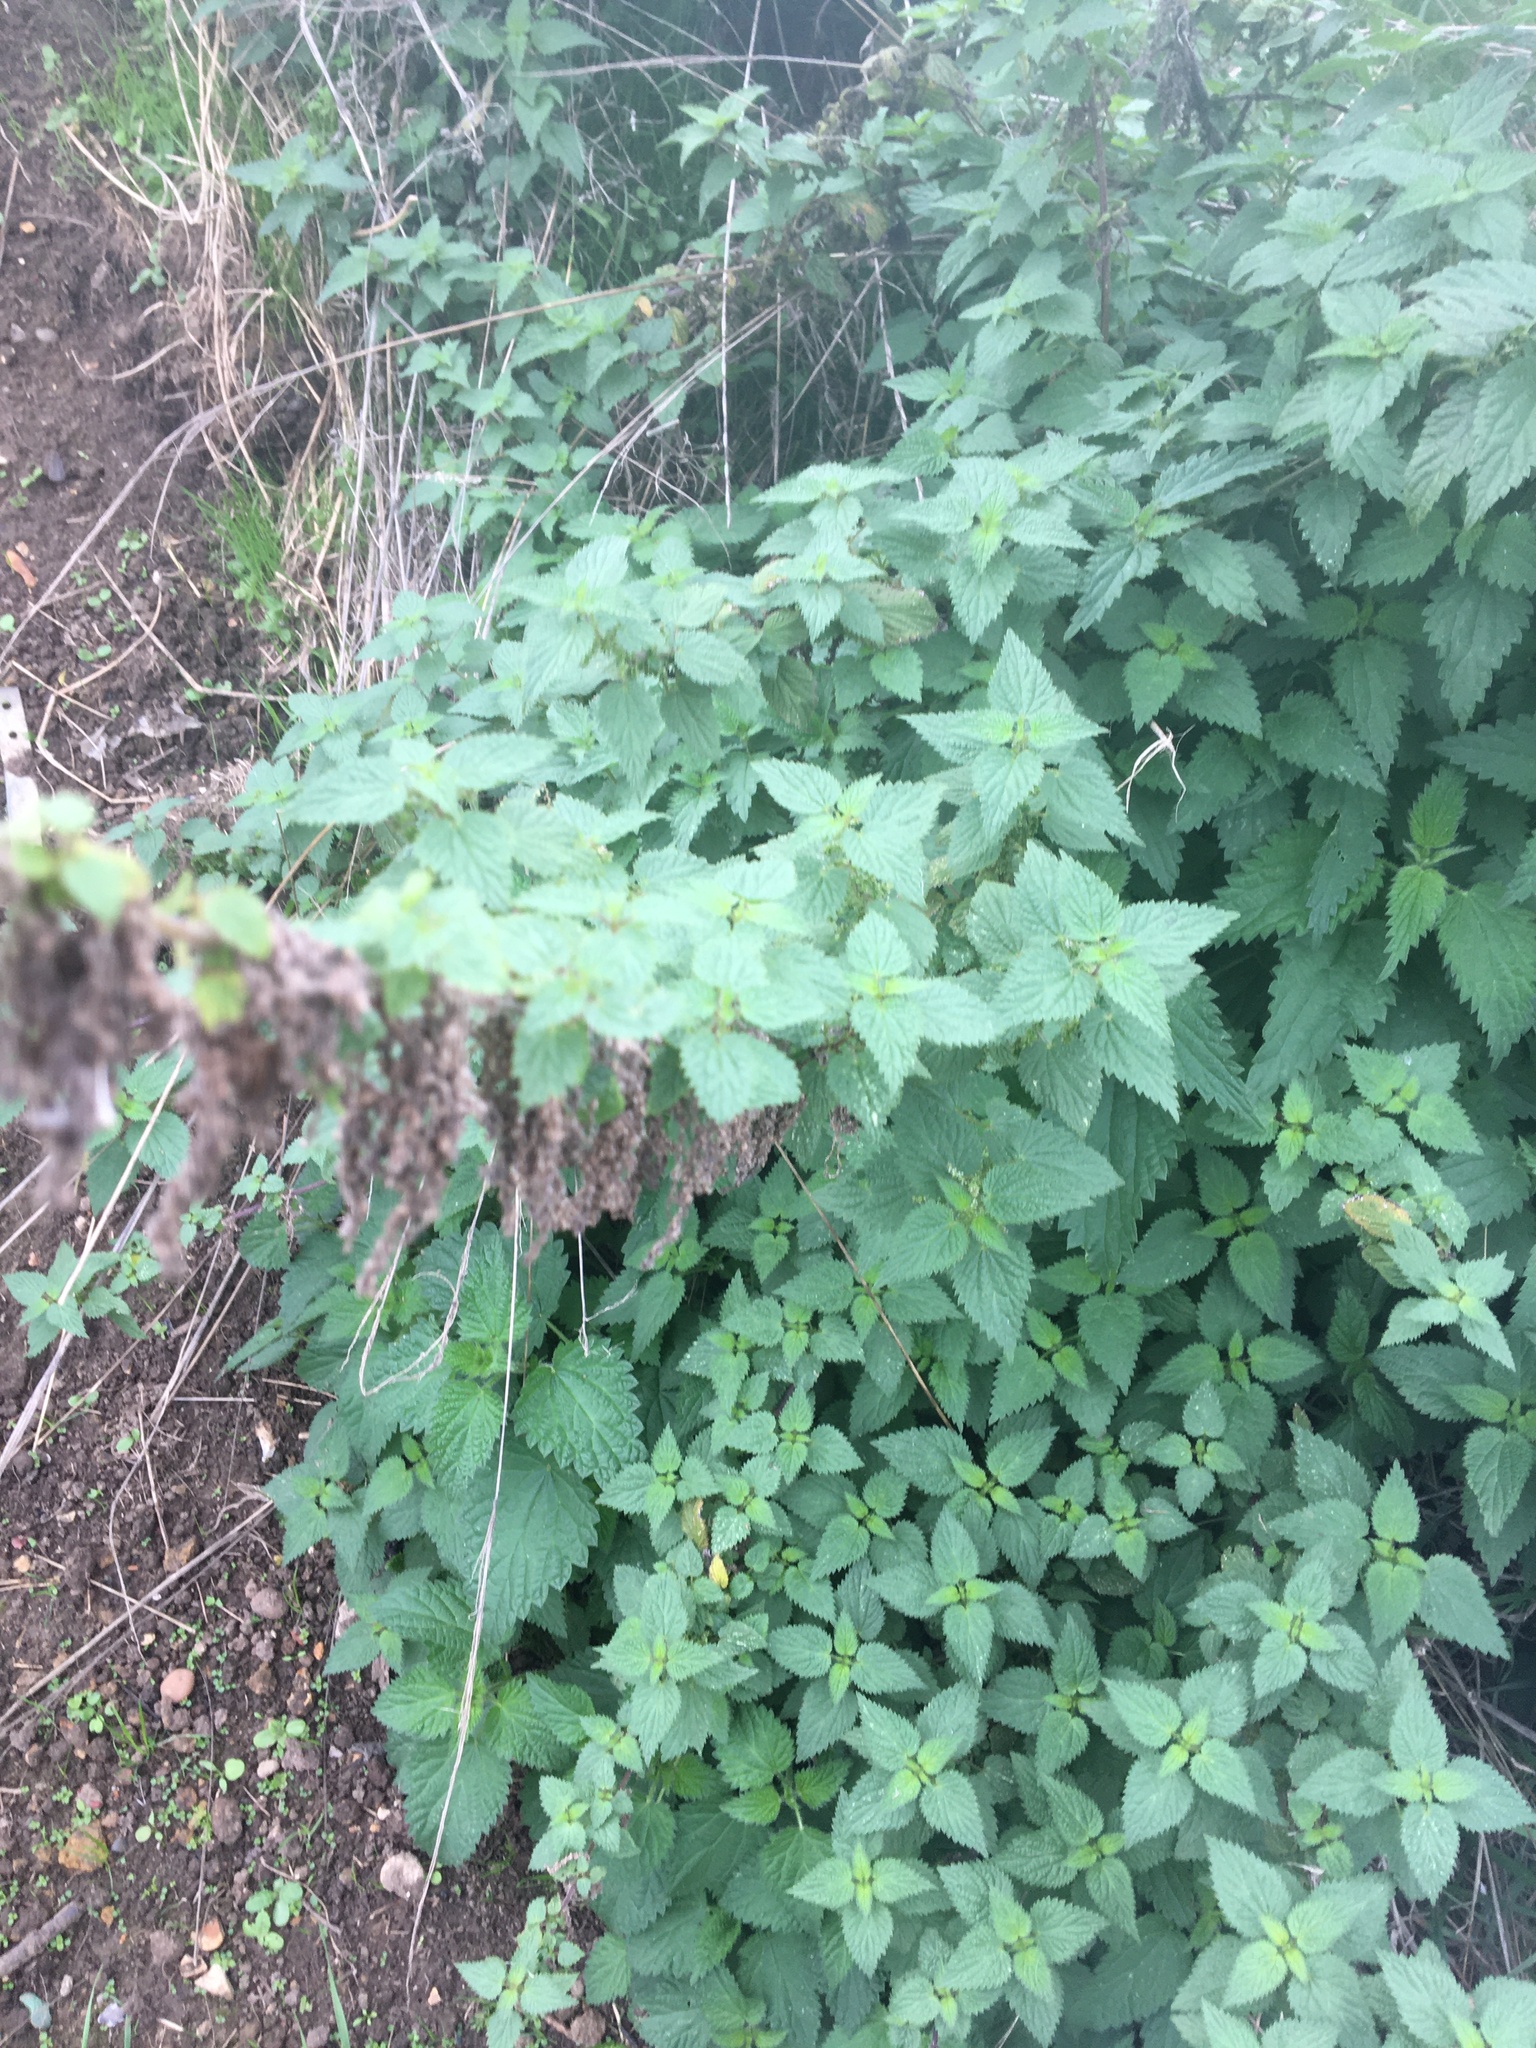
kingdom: Plantae
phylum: Tracheophyta
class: Magnoliopsida
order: Rosales
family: Urticaceae
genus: Urtica
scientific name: Urtica dioica
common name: Common nettle
